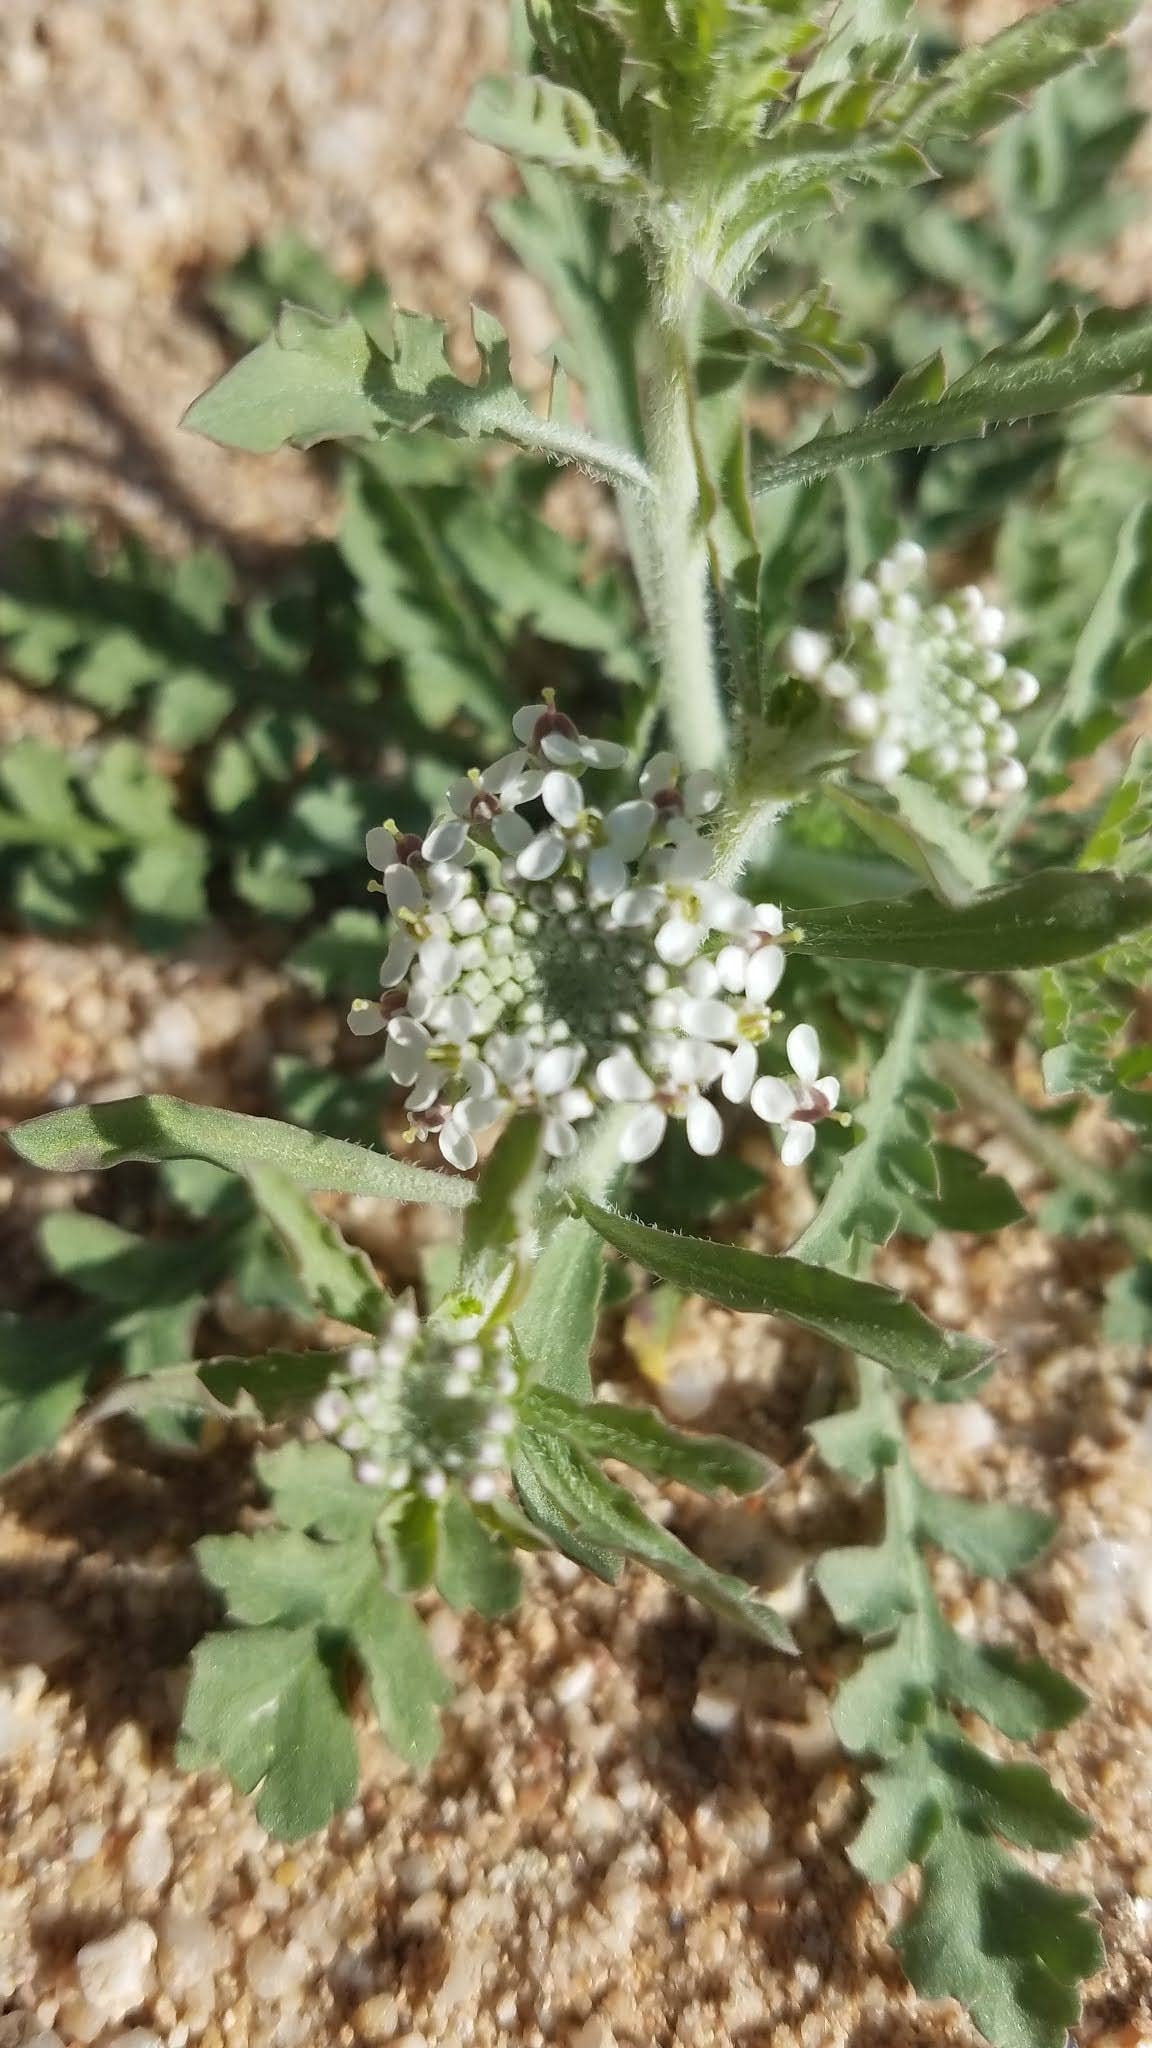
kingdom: Plantae
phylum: Tracheophyta
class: Magnoliopsida
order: Brassicales
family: Brassicaceae
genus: Lepidium
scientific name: Lepidium thurberi
